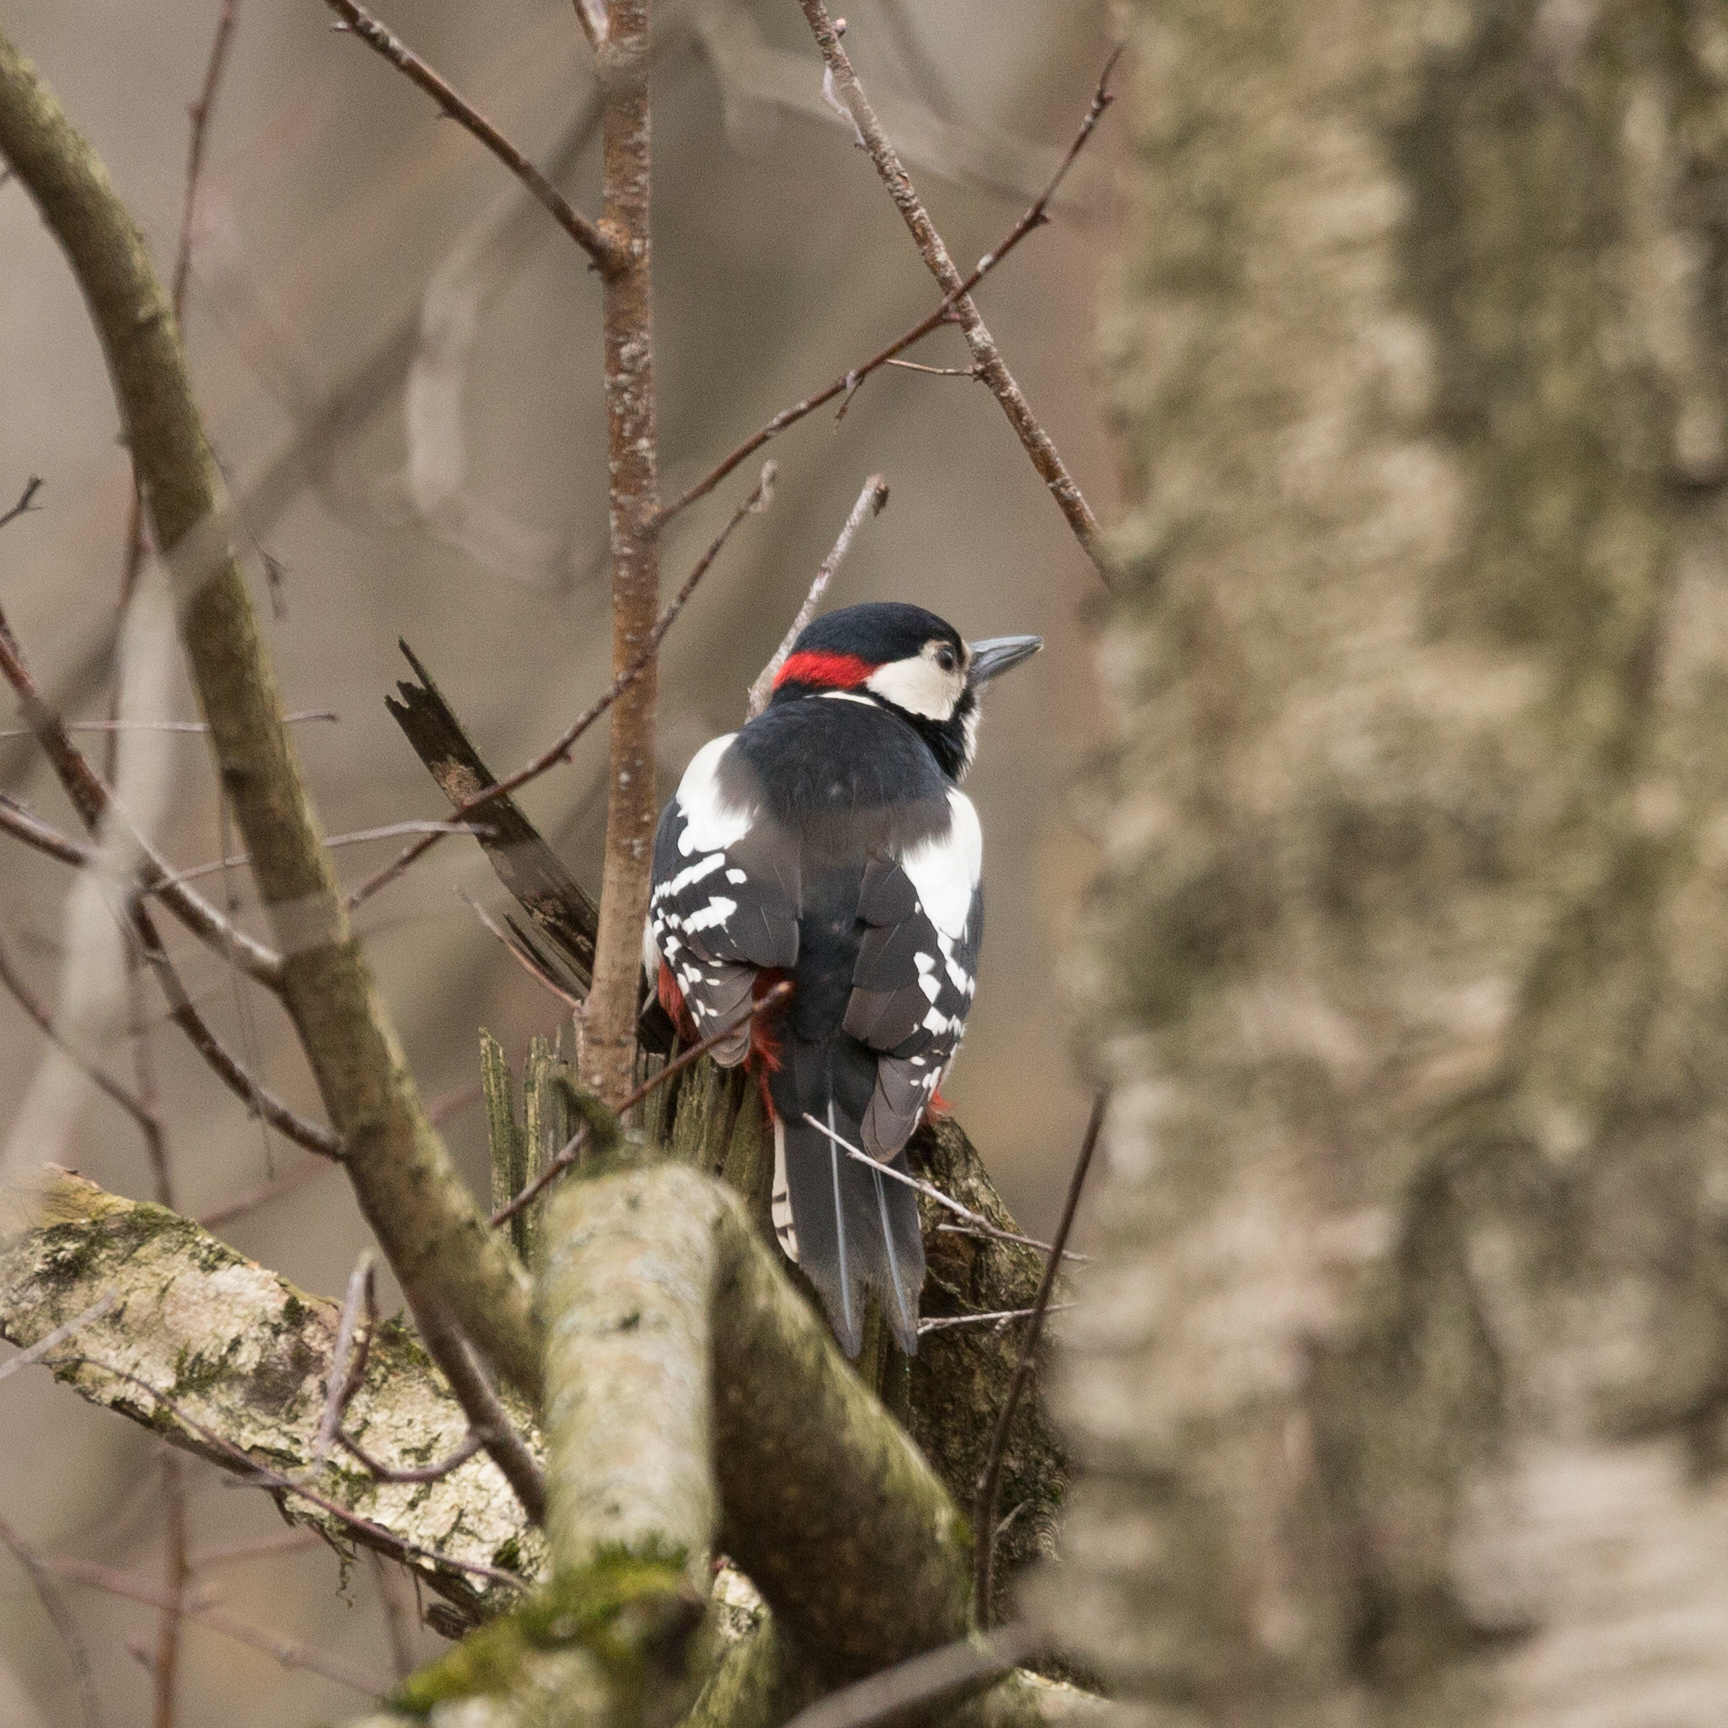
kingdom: Animalia
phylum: Chordata
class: Aves
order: Piciformes
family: Picidae
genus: Dendrocopos
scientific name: Dendrocopos major
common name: Great spotted woodpecker
